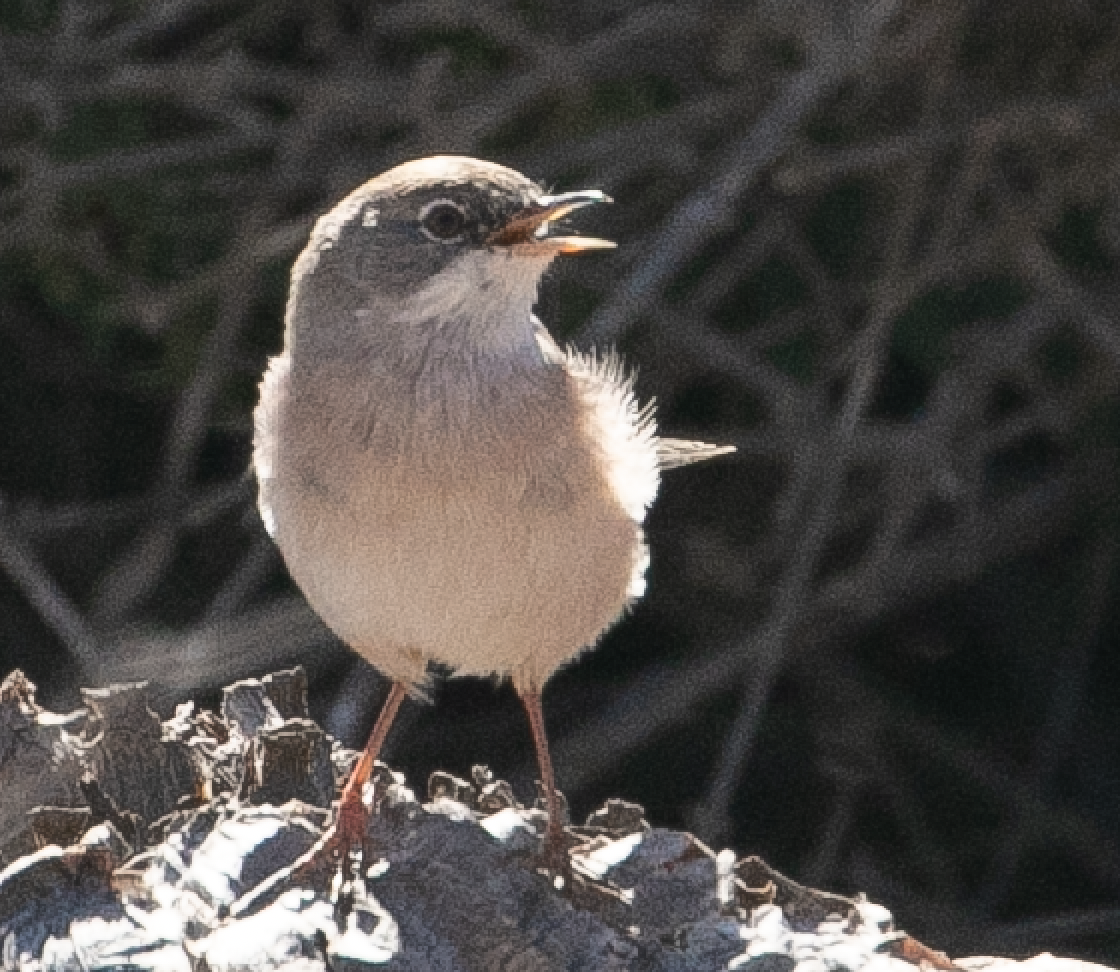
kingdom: Animalia
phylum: Chordata
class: Aves
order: Passeriformes
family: Sylviidae
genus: Sylvia
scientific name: Sylvia conspicillata
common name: Spectacled warbler
